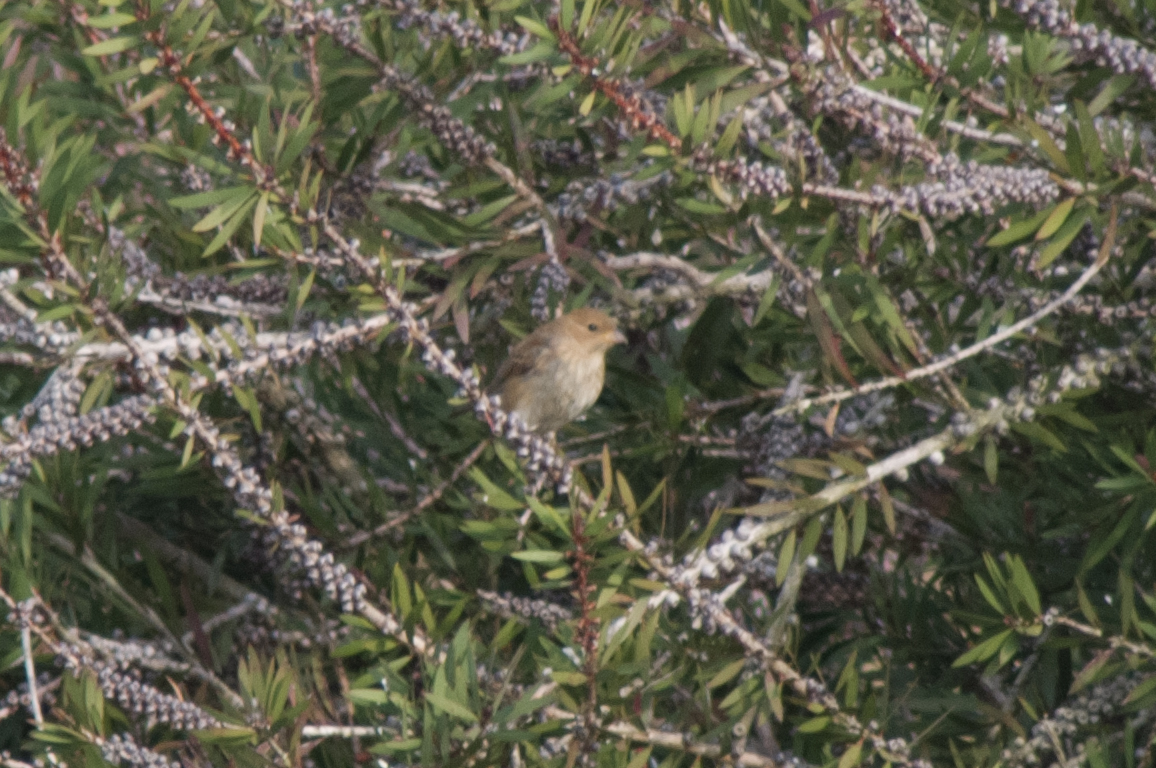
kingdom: Animalia
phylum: Chordata
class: Aves
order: Passeriformes
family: Cardinalidae
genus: Passerina
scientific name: Passerina cyanea
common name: Indigo bunting
